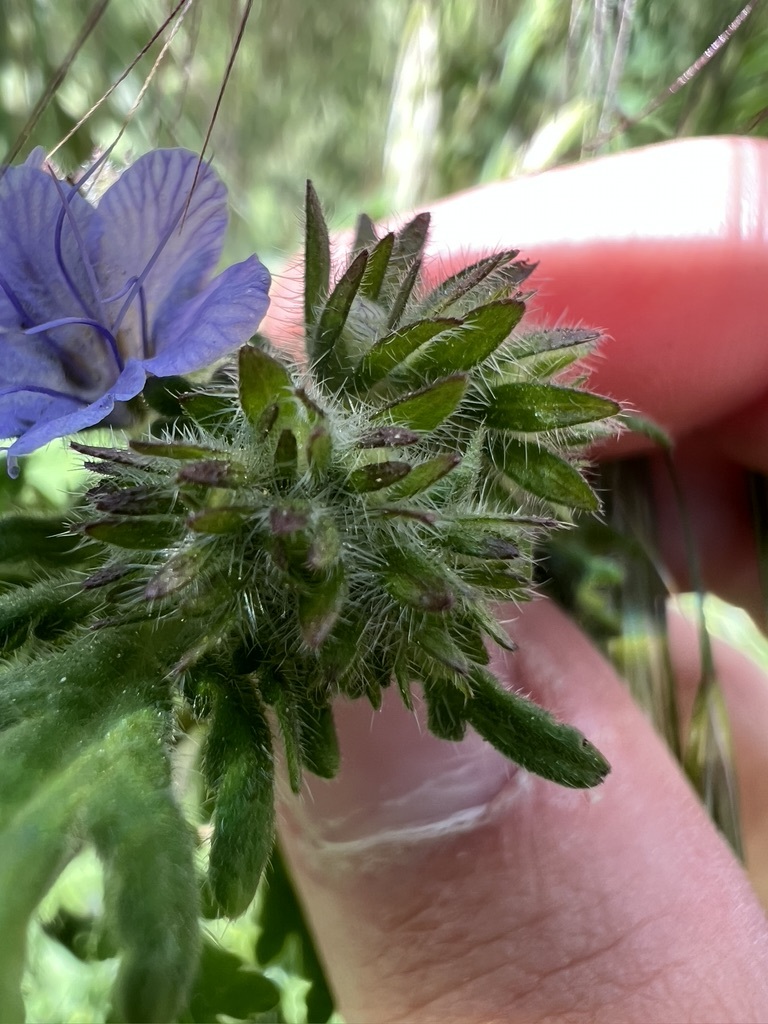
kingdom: Plantae
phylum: Tracheophyta
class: Magnoliopsida
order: Boraginales
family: Hydrophyllaceae
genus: Phacelia
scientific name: Phacelia distans
